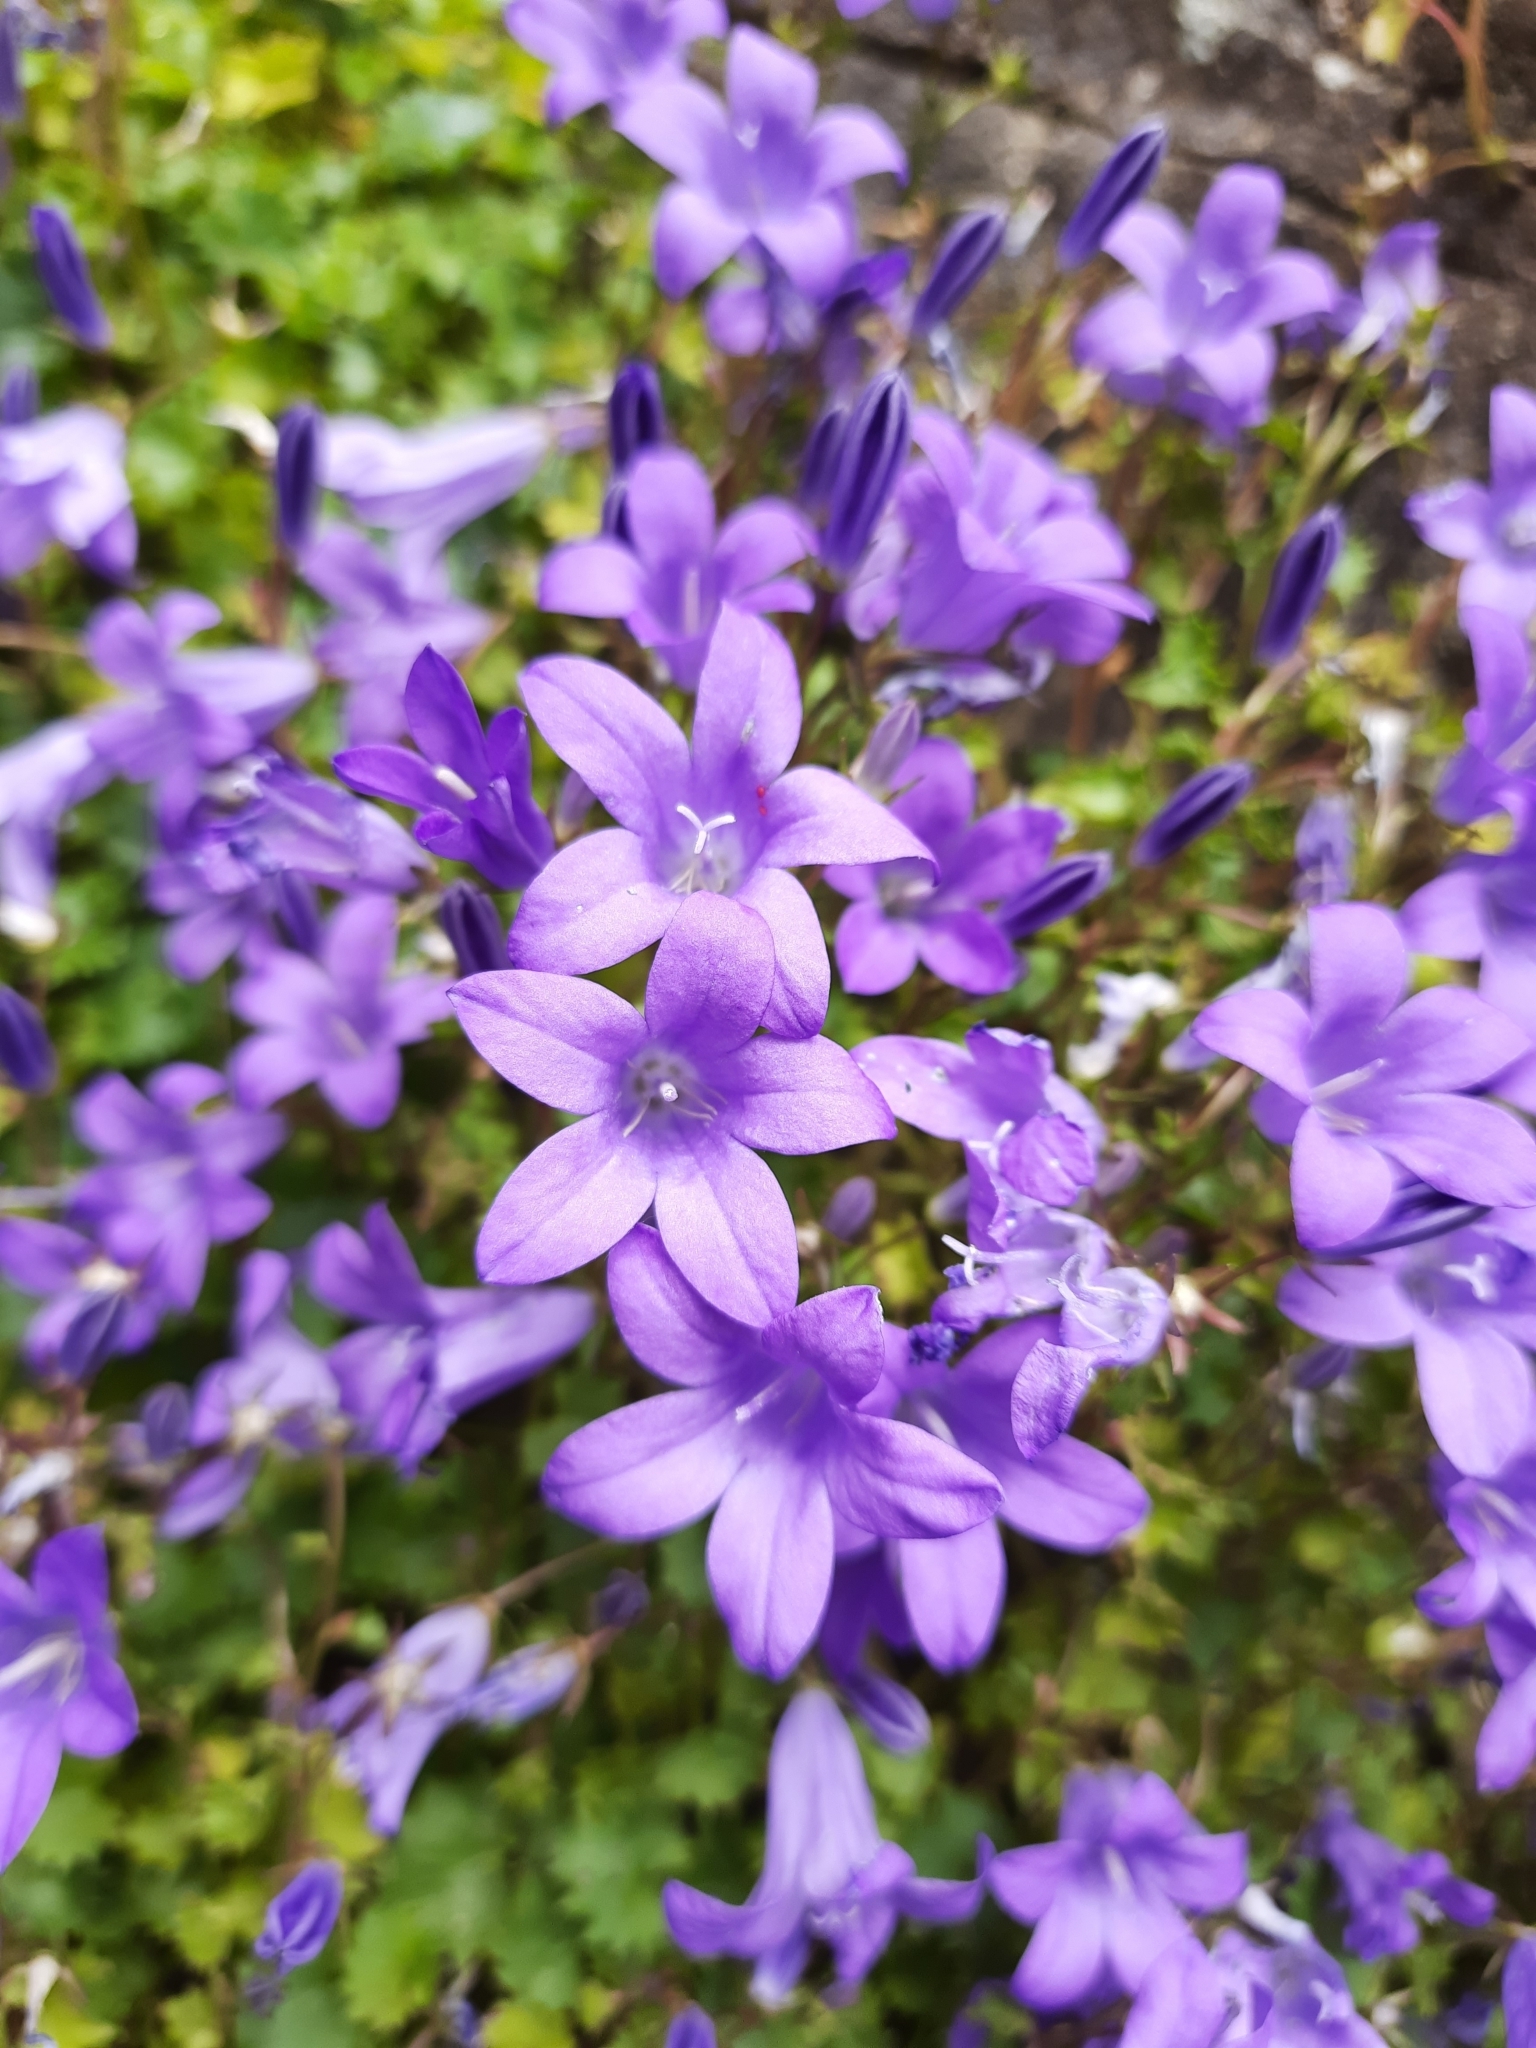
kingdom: Plantae
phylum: Tracheophyta
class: Magnoliopsida
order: Asterales
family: Campanulaceae
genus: Campanula
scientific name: Campanula portenschlagiana
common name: Adria bellflower
